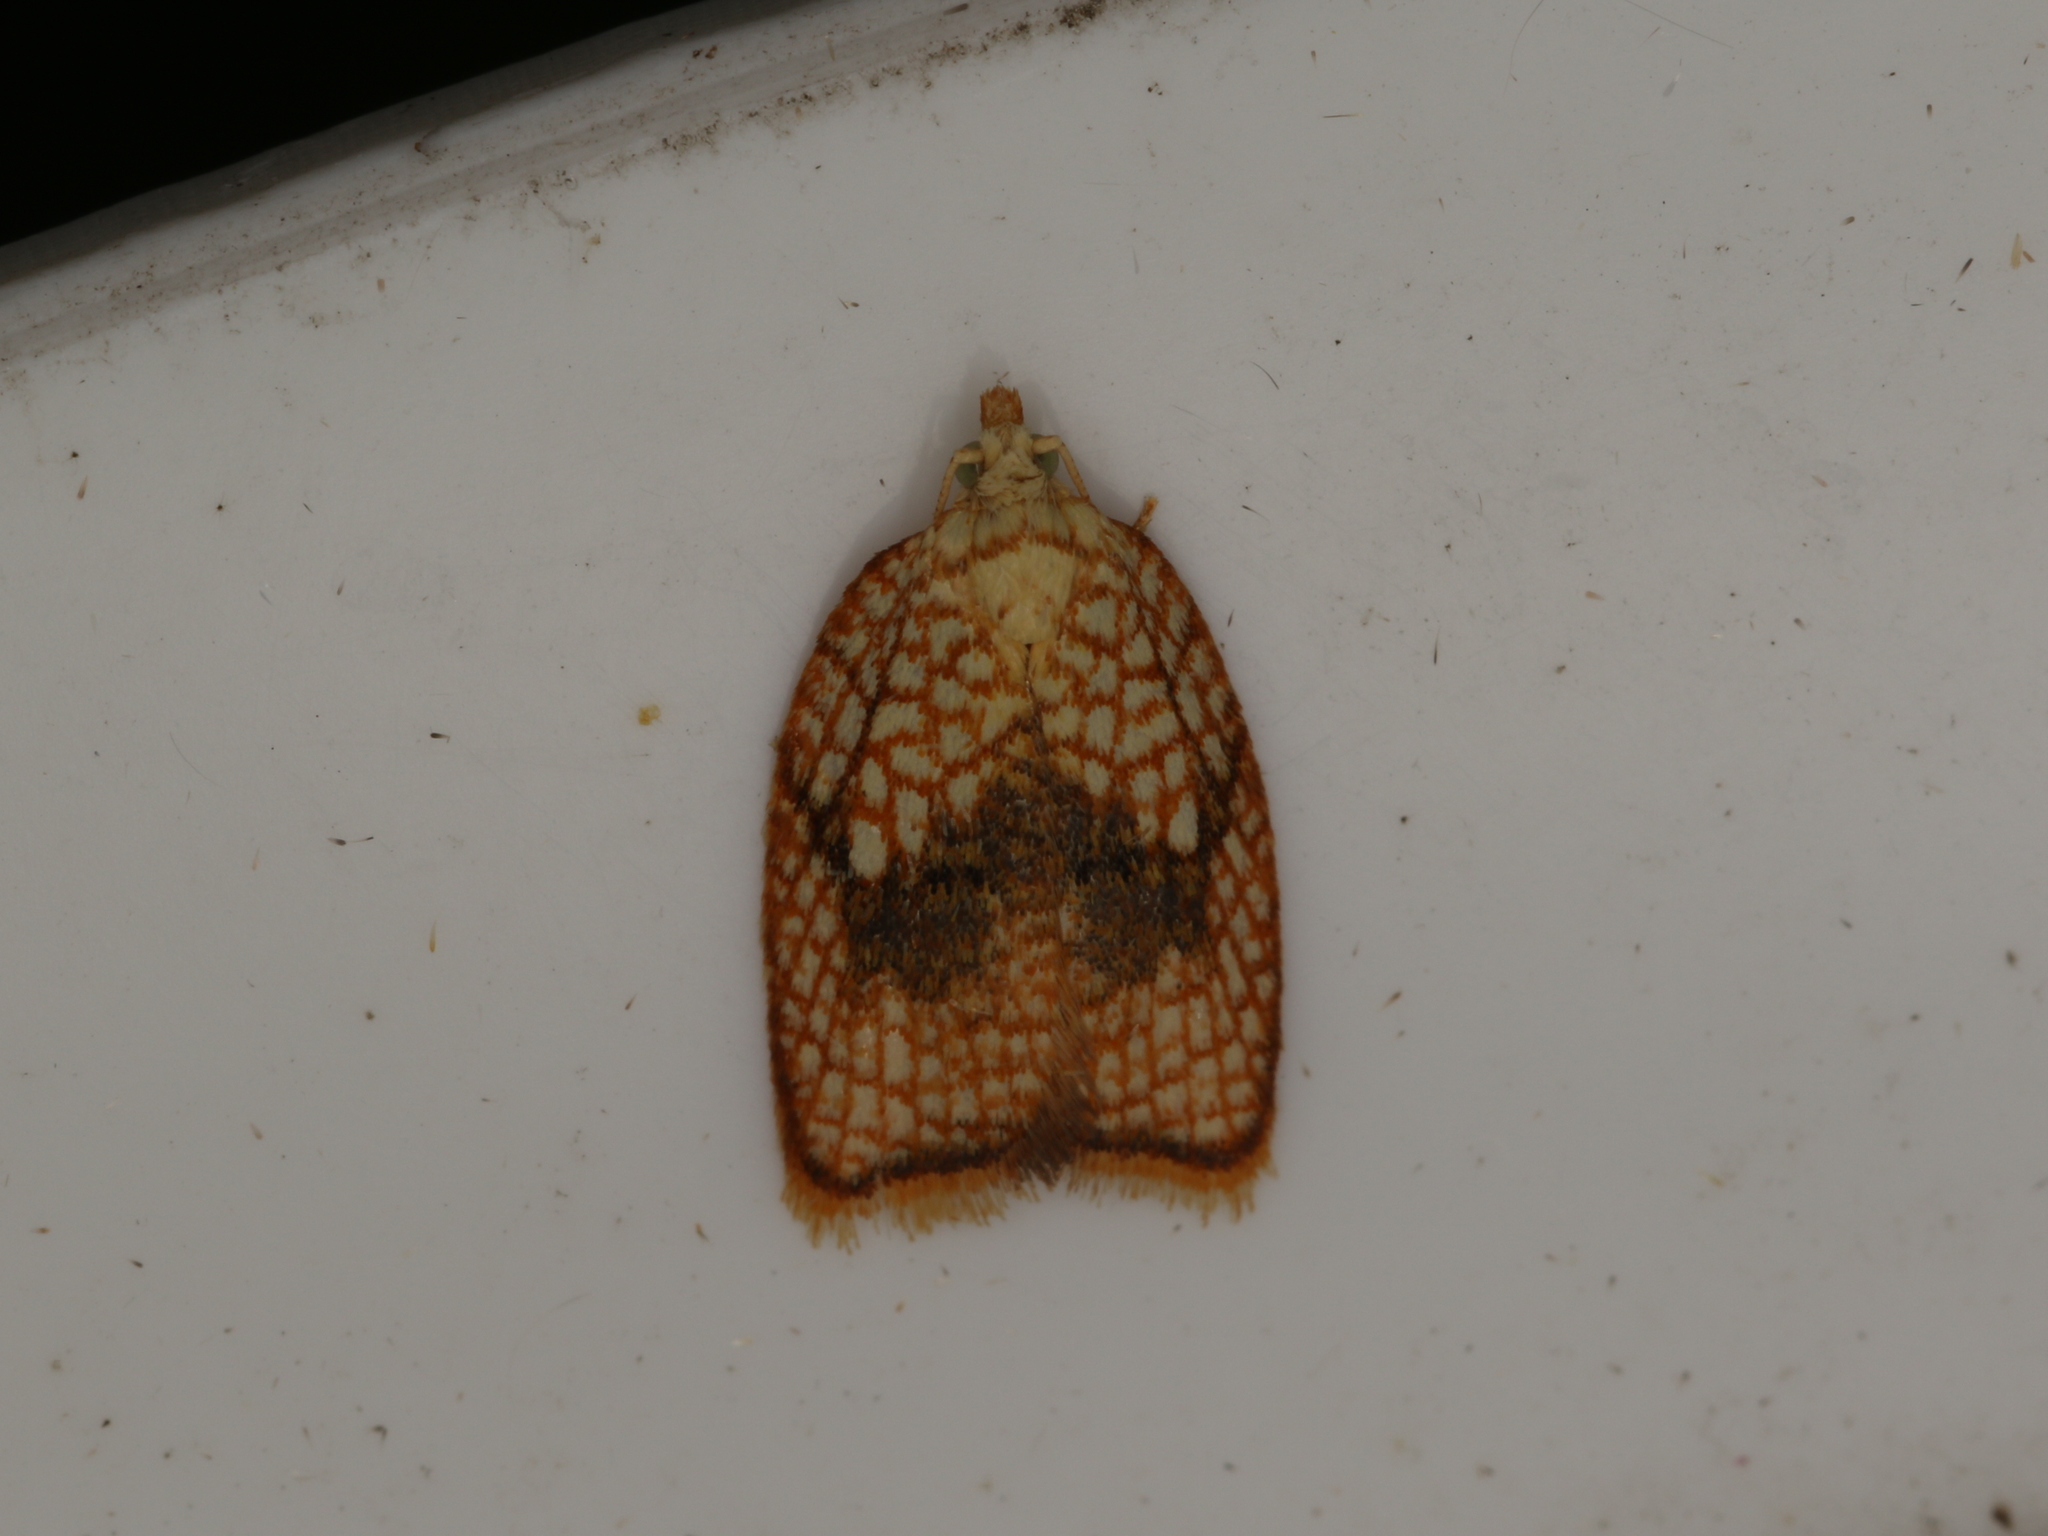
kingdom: Animalia
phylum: Arthropoda
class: Insecta
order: Lepidoptera
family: Tortricidae
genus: Acleris
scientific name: Acleris forsskaleana
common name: Maple button
